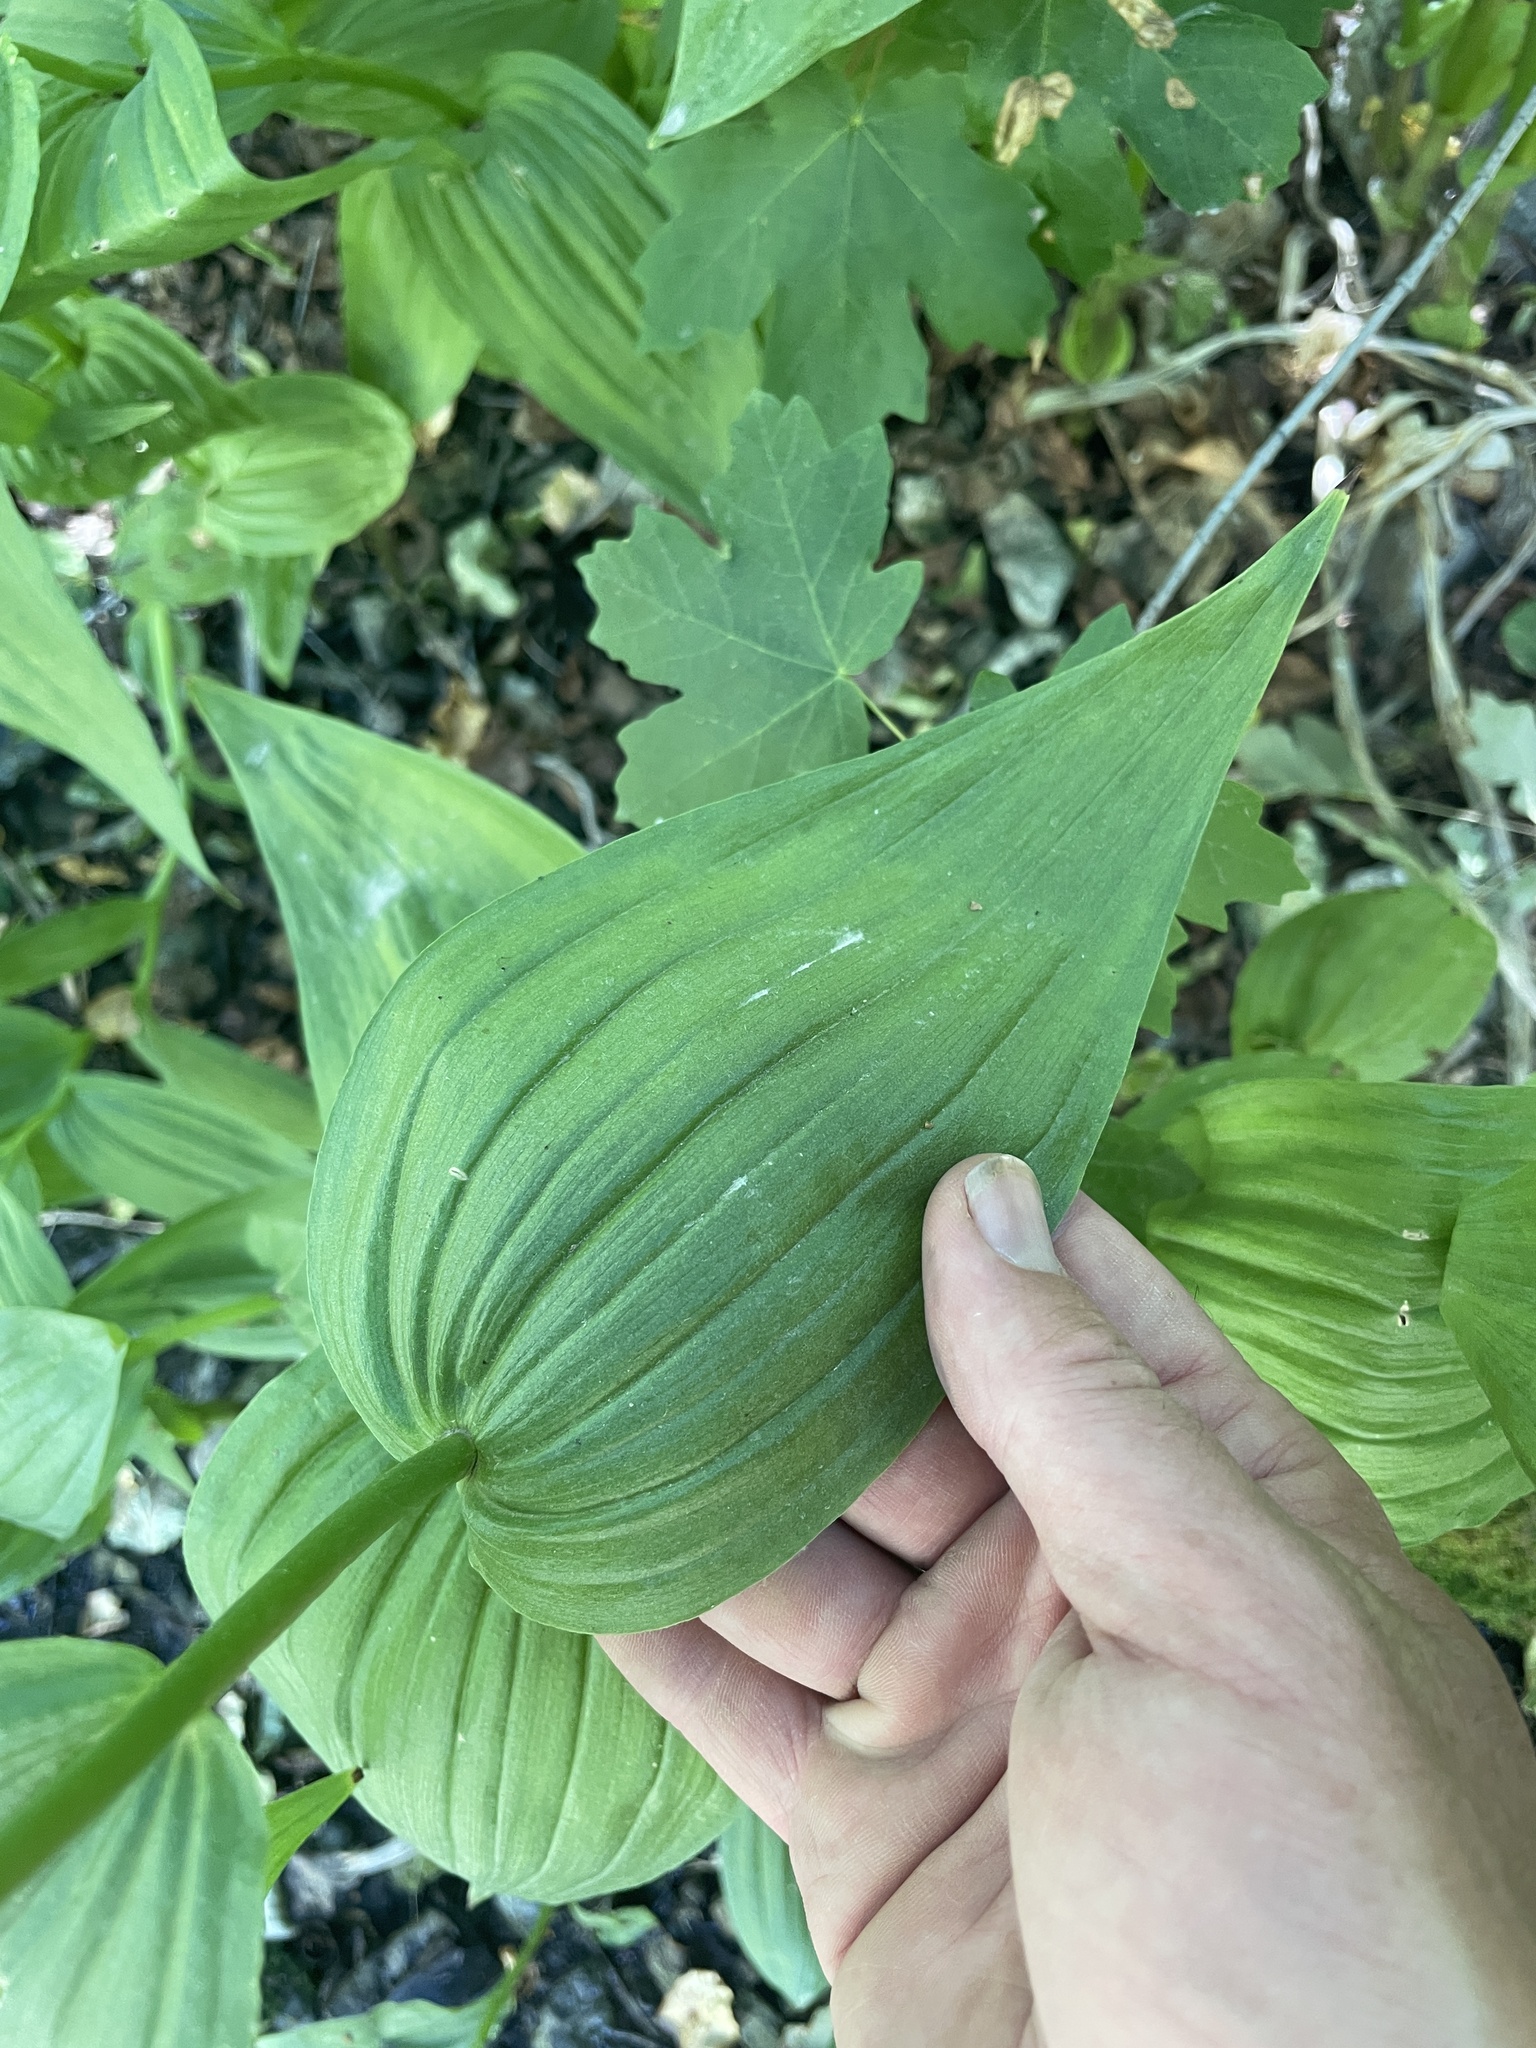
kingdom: Plantae
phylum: Tracheophyta
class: Liliopsida
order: Asparagales
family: Orchidaceae
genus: Epipactis
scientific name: Epipactis gigantea
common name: Chatterbox
